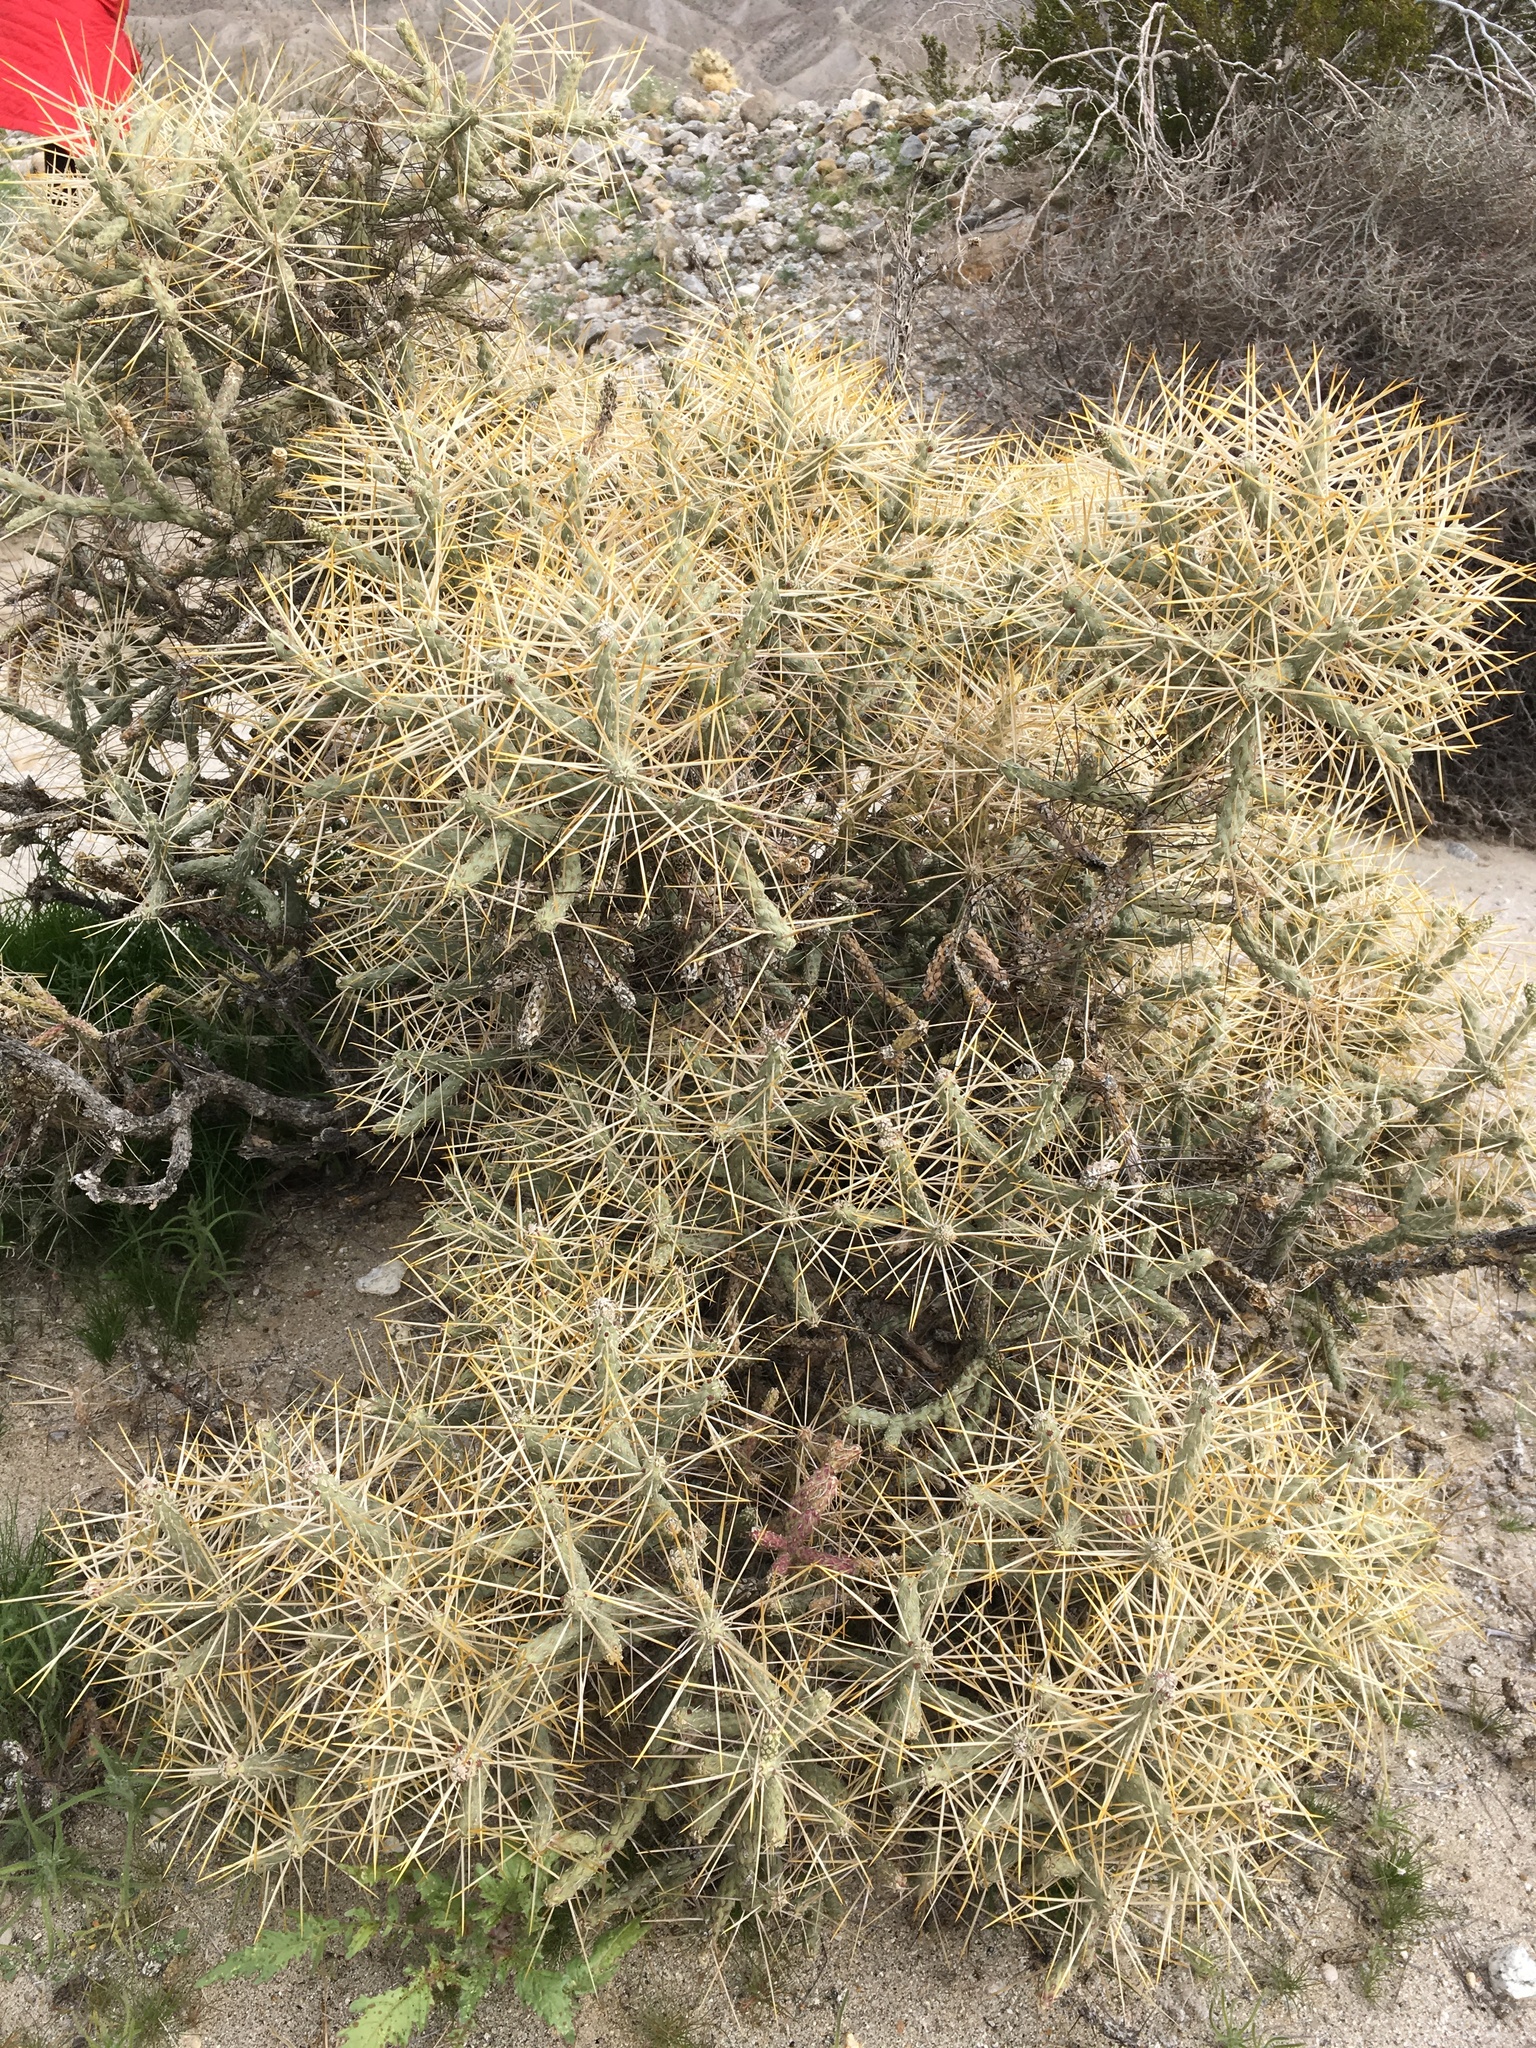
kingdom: Plantae
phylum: Tracheophyta
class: Magnoliopsida
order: Caryophyllales
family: Cactaceae
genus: Cylindropuntia
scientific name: Cylindropuntia ramosissima
